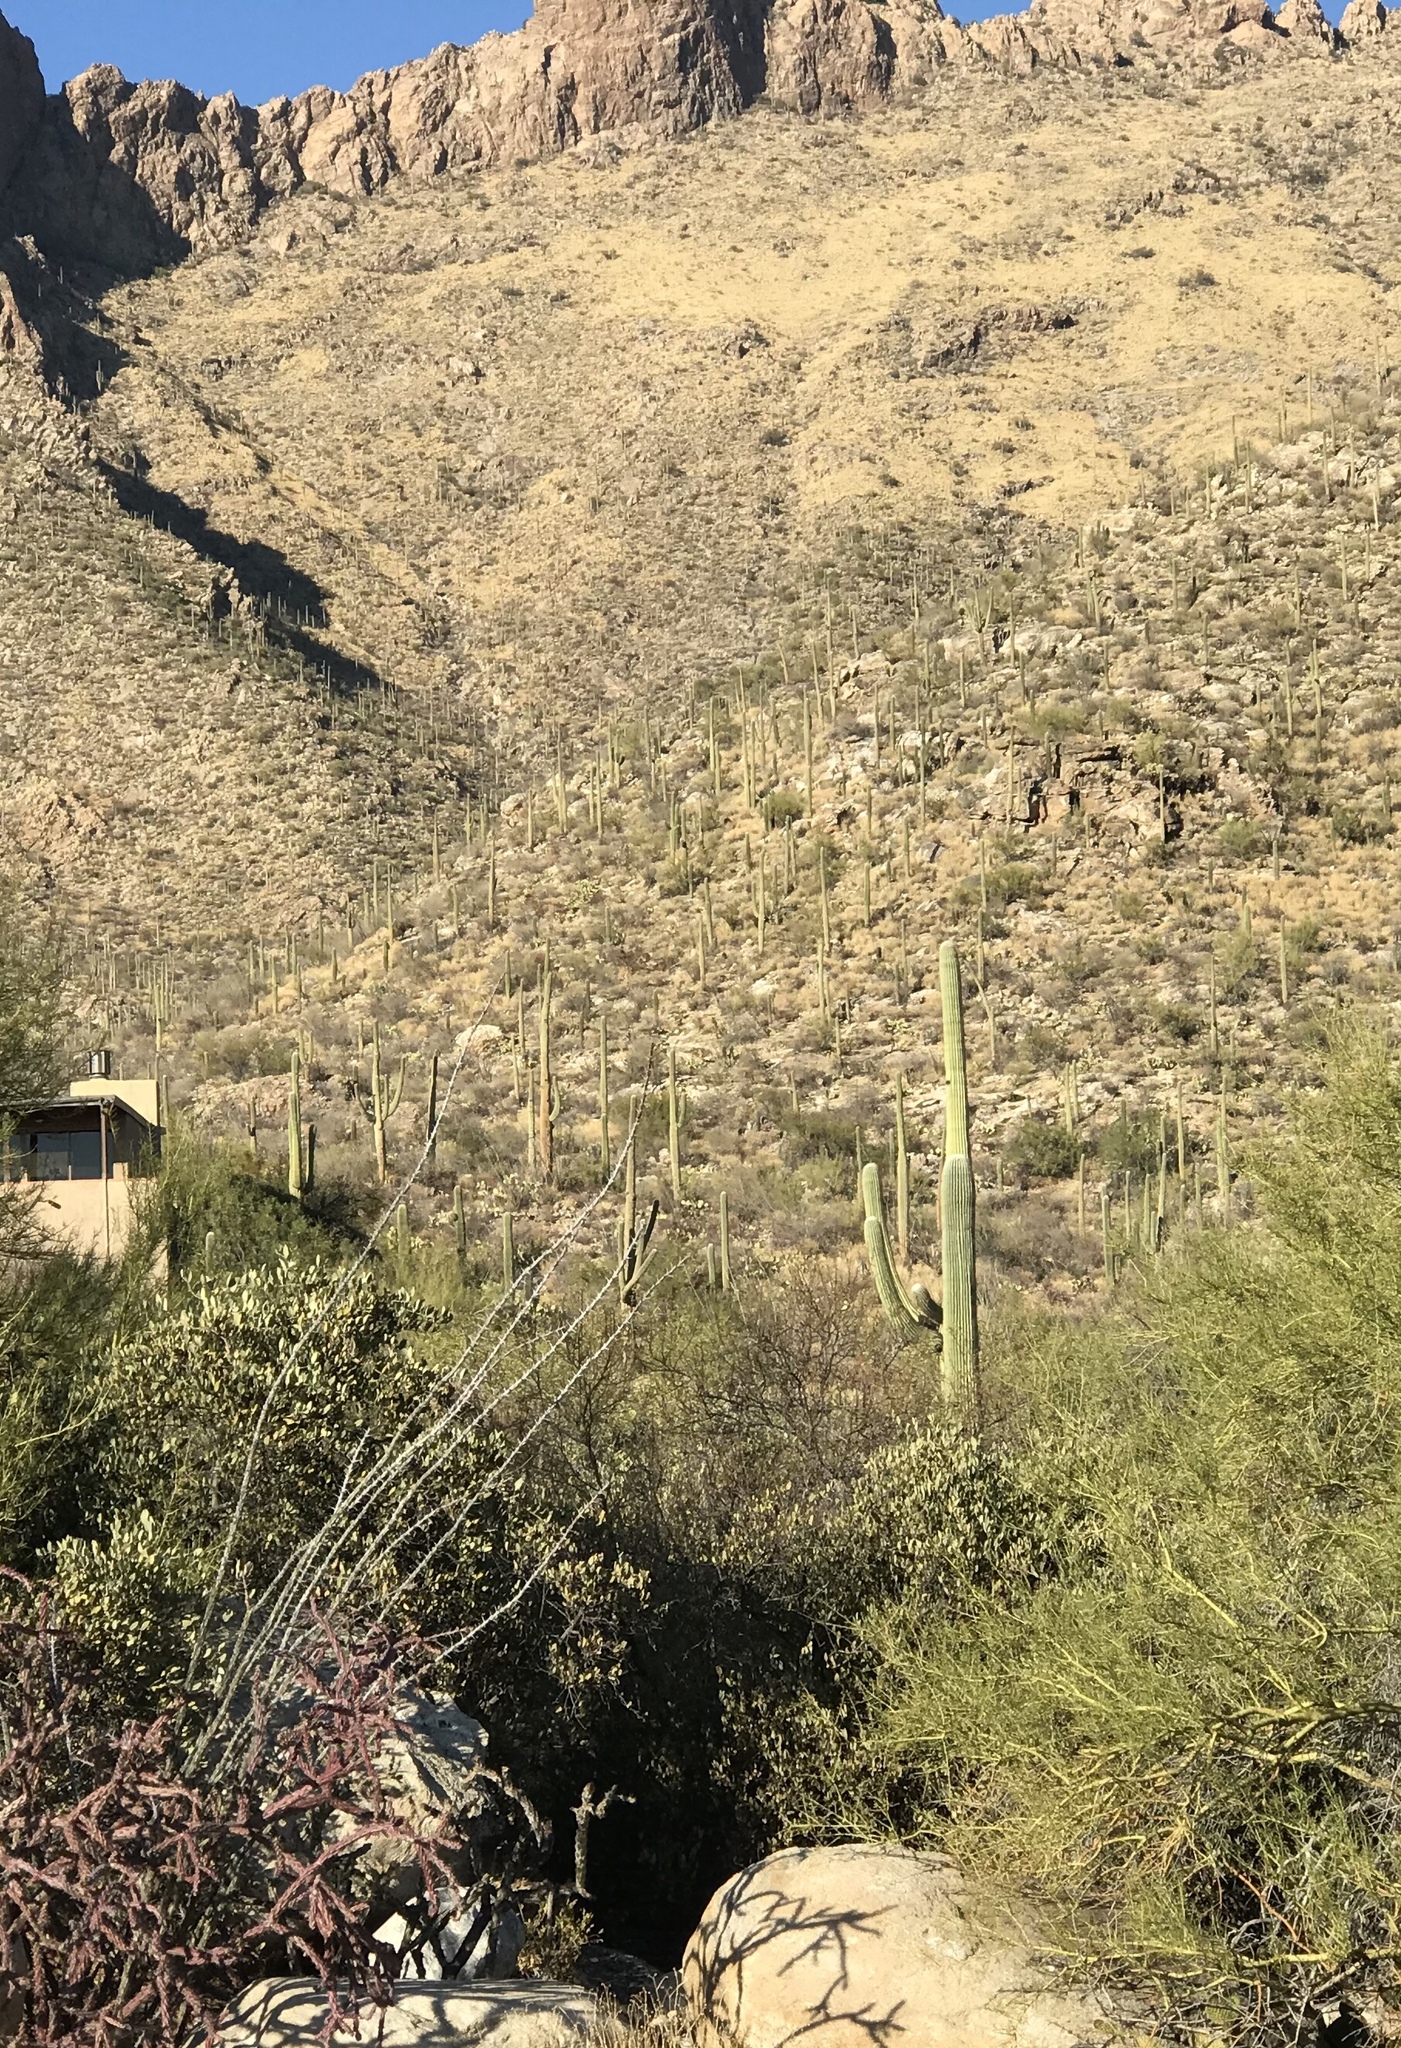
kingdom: Plantae
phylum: Tracheophyta
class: Magnoliopsida
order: Caryophyllales
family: Cactaceae
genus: Carnegiea
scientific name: Carnegiea gigantea
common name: Saguaro
